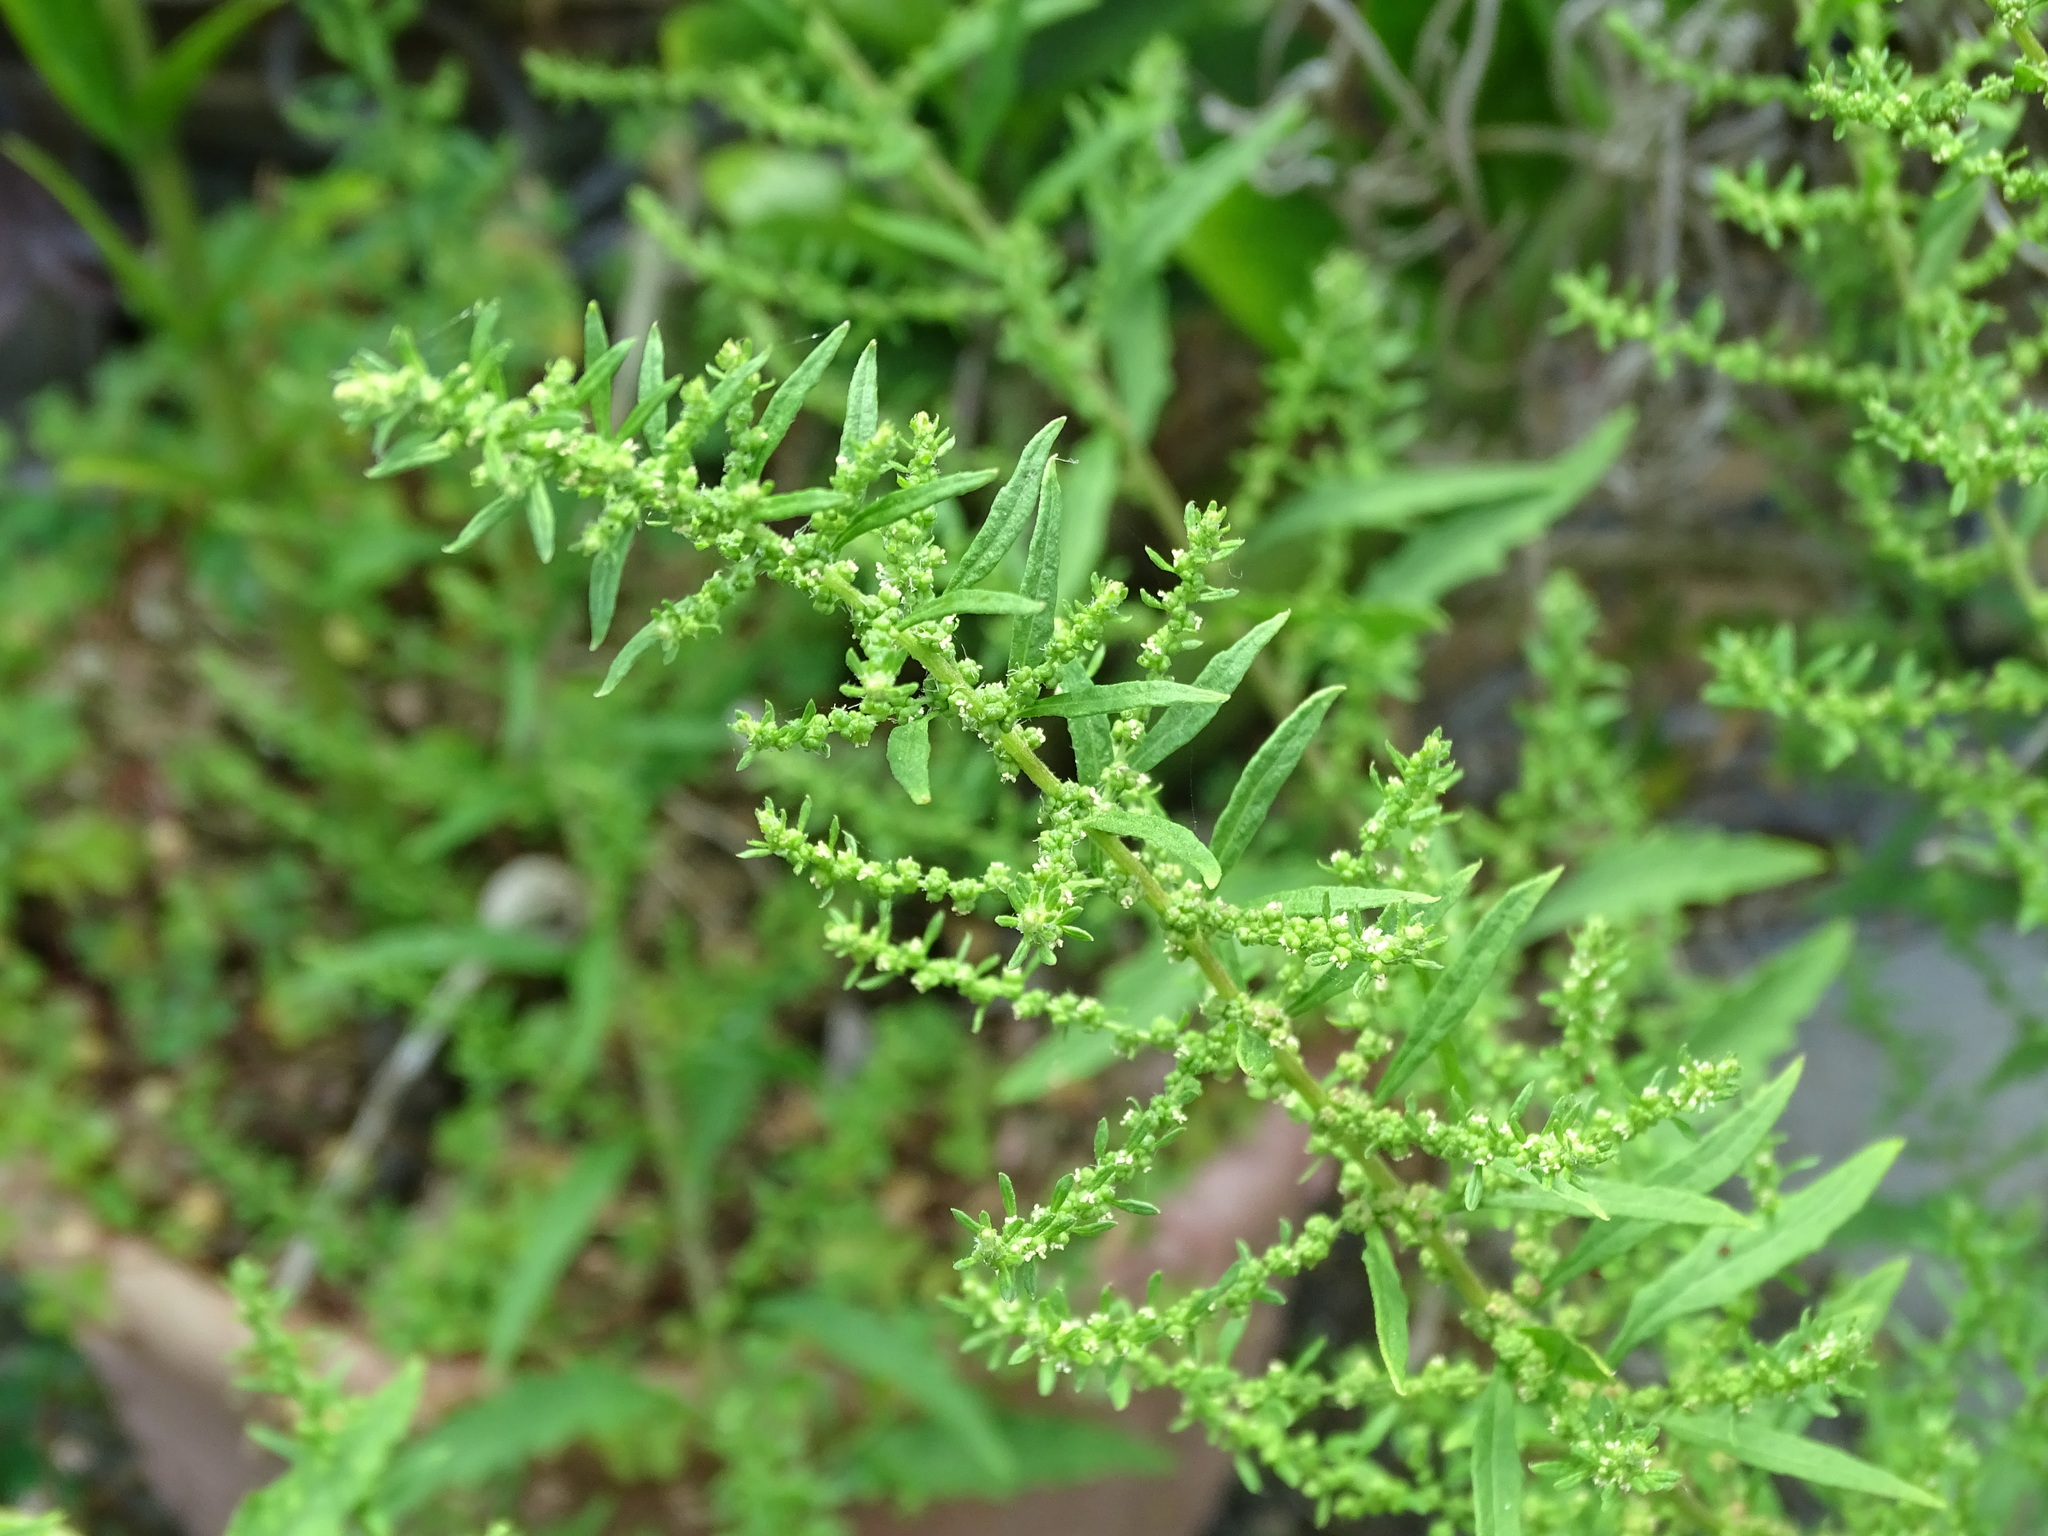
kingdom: Plantae
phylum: Tracheophyta
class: Magnoliopsida
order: Caryophyllales
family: Amaranthaceae
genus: Dysphania
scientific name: Dysphania ambrosioides
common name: Wormseed
